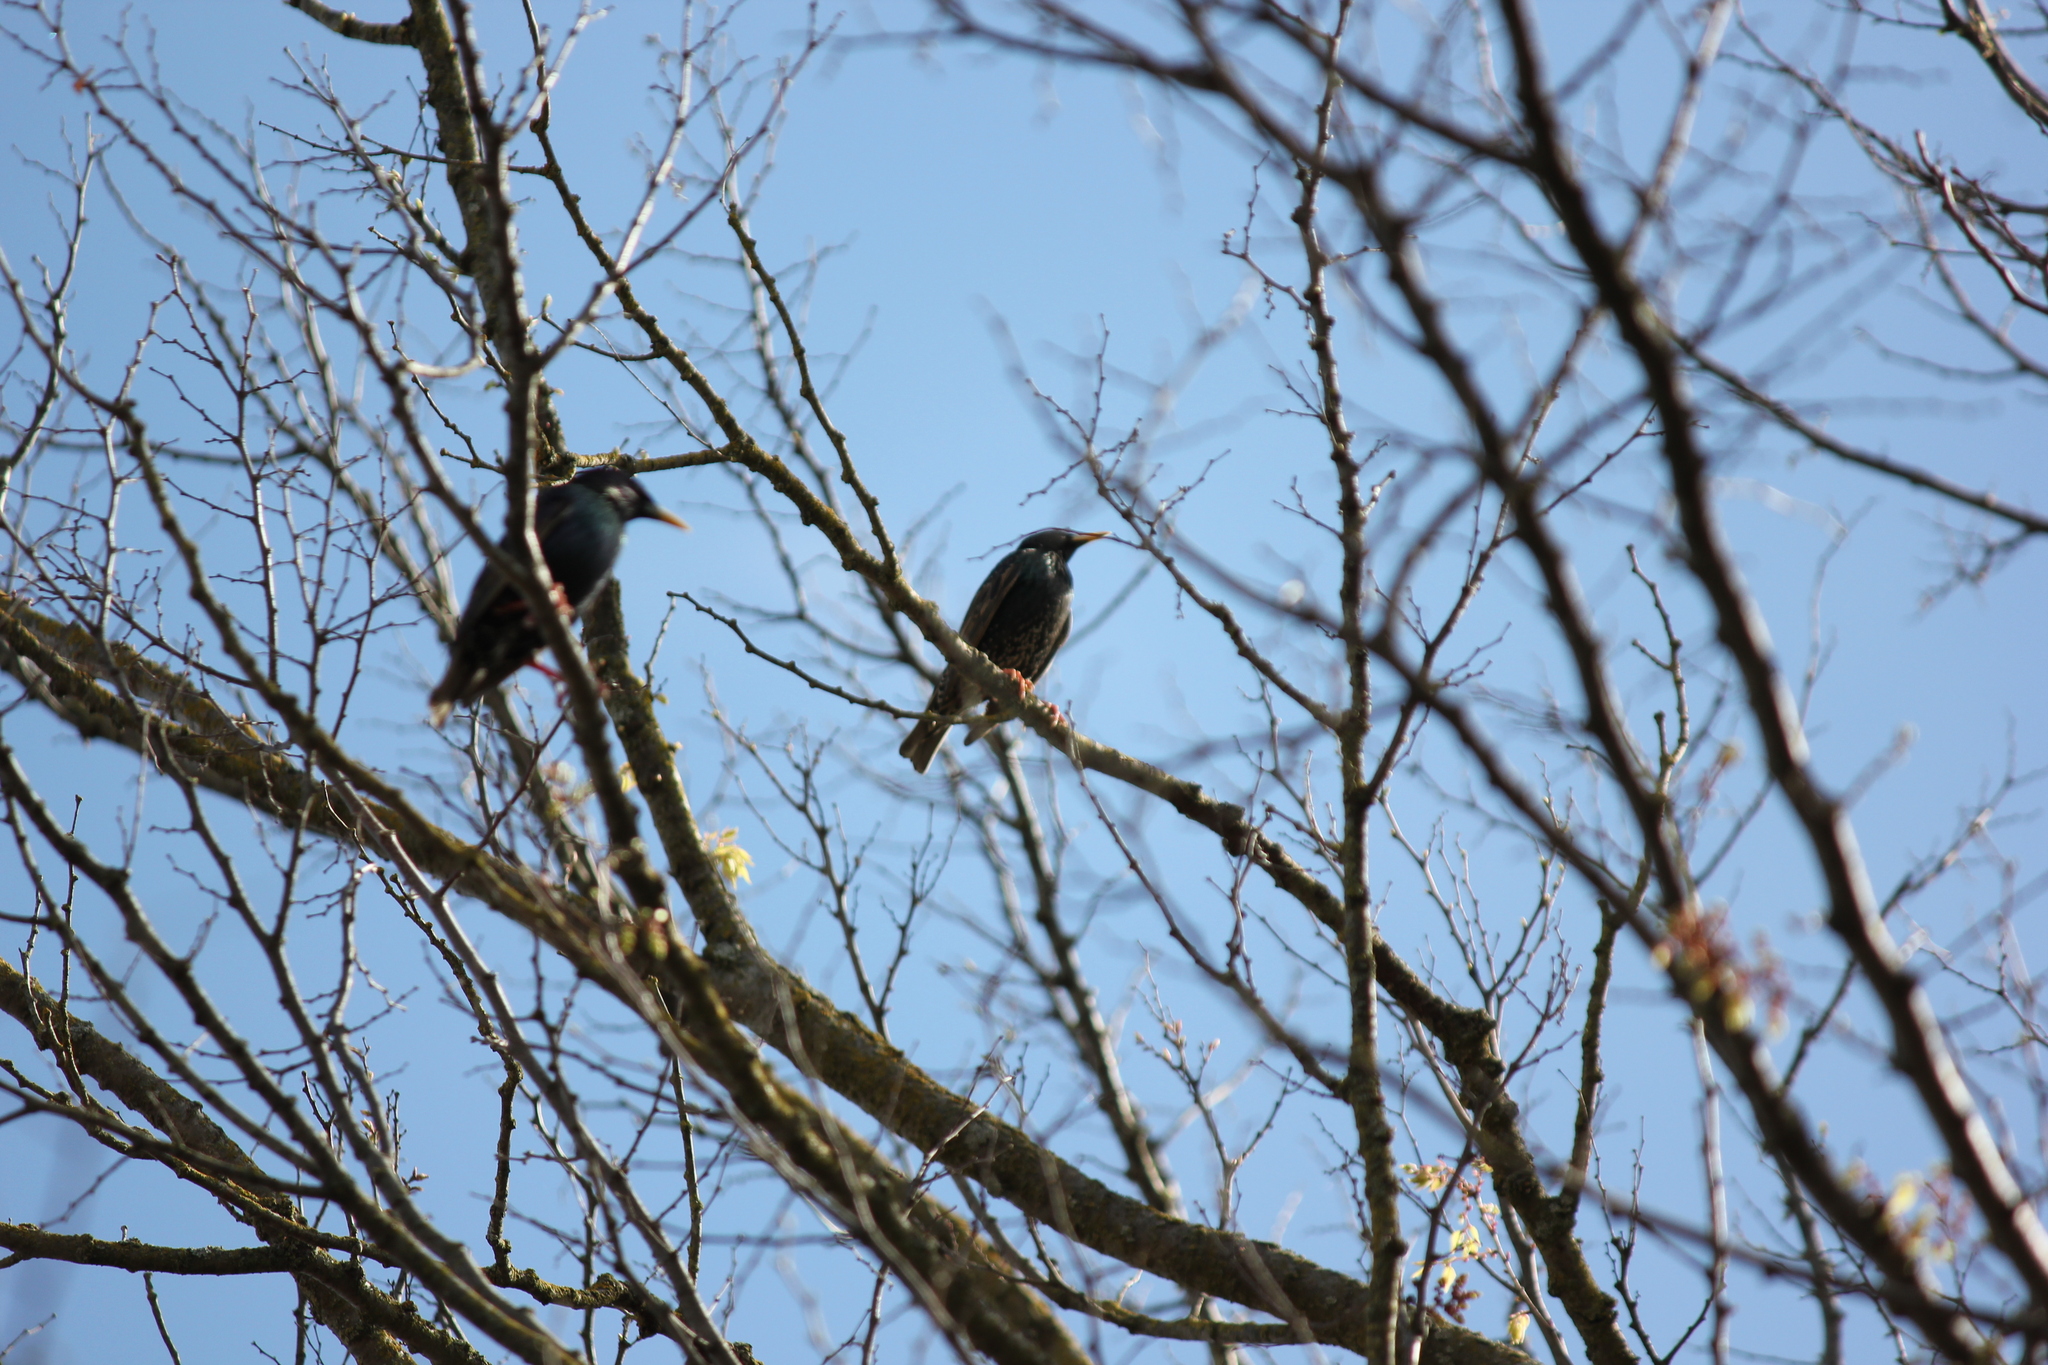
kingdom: Animalia
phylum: Chordata
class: Aves
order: Passeriformes
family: Sturnidae
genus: Sturnus
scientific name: Sturnus vulgaris
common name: Common starling
